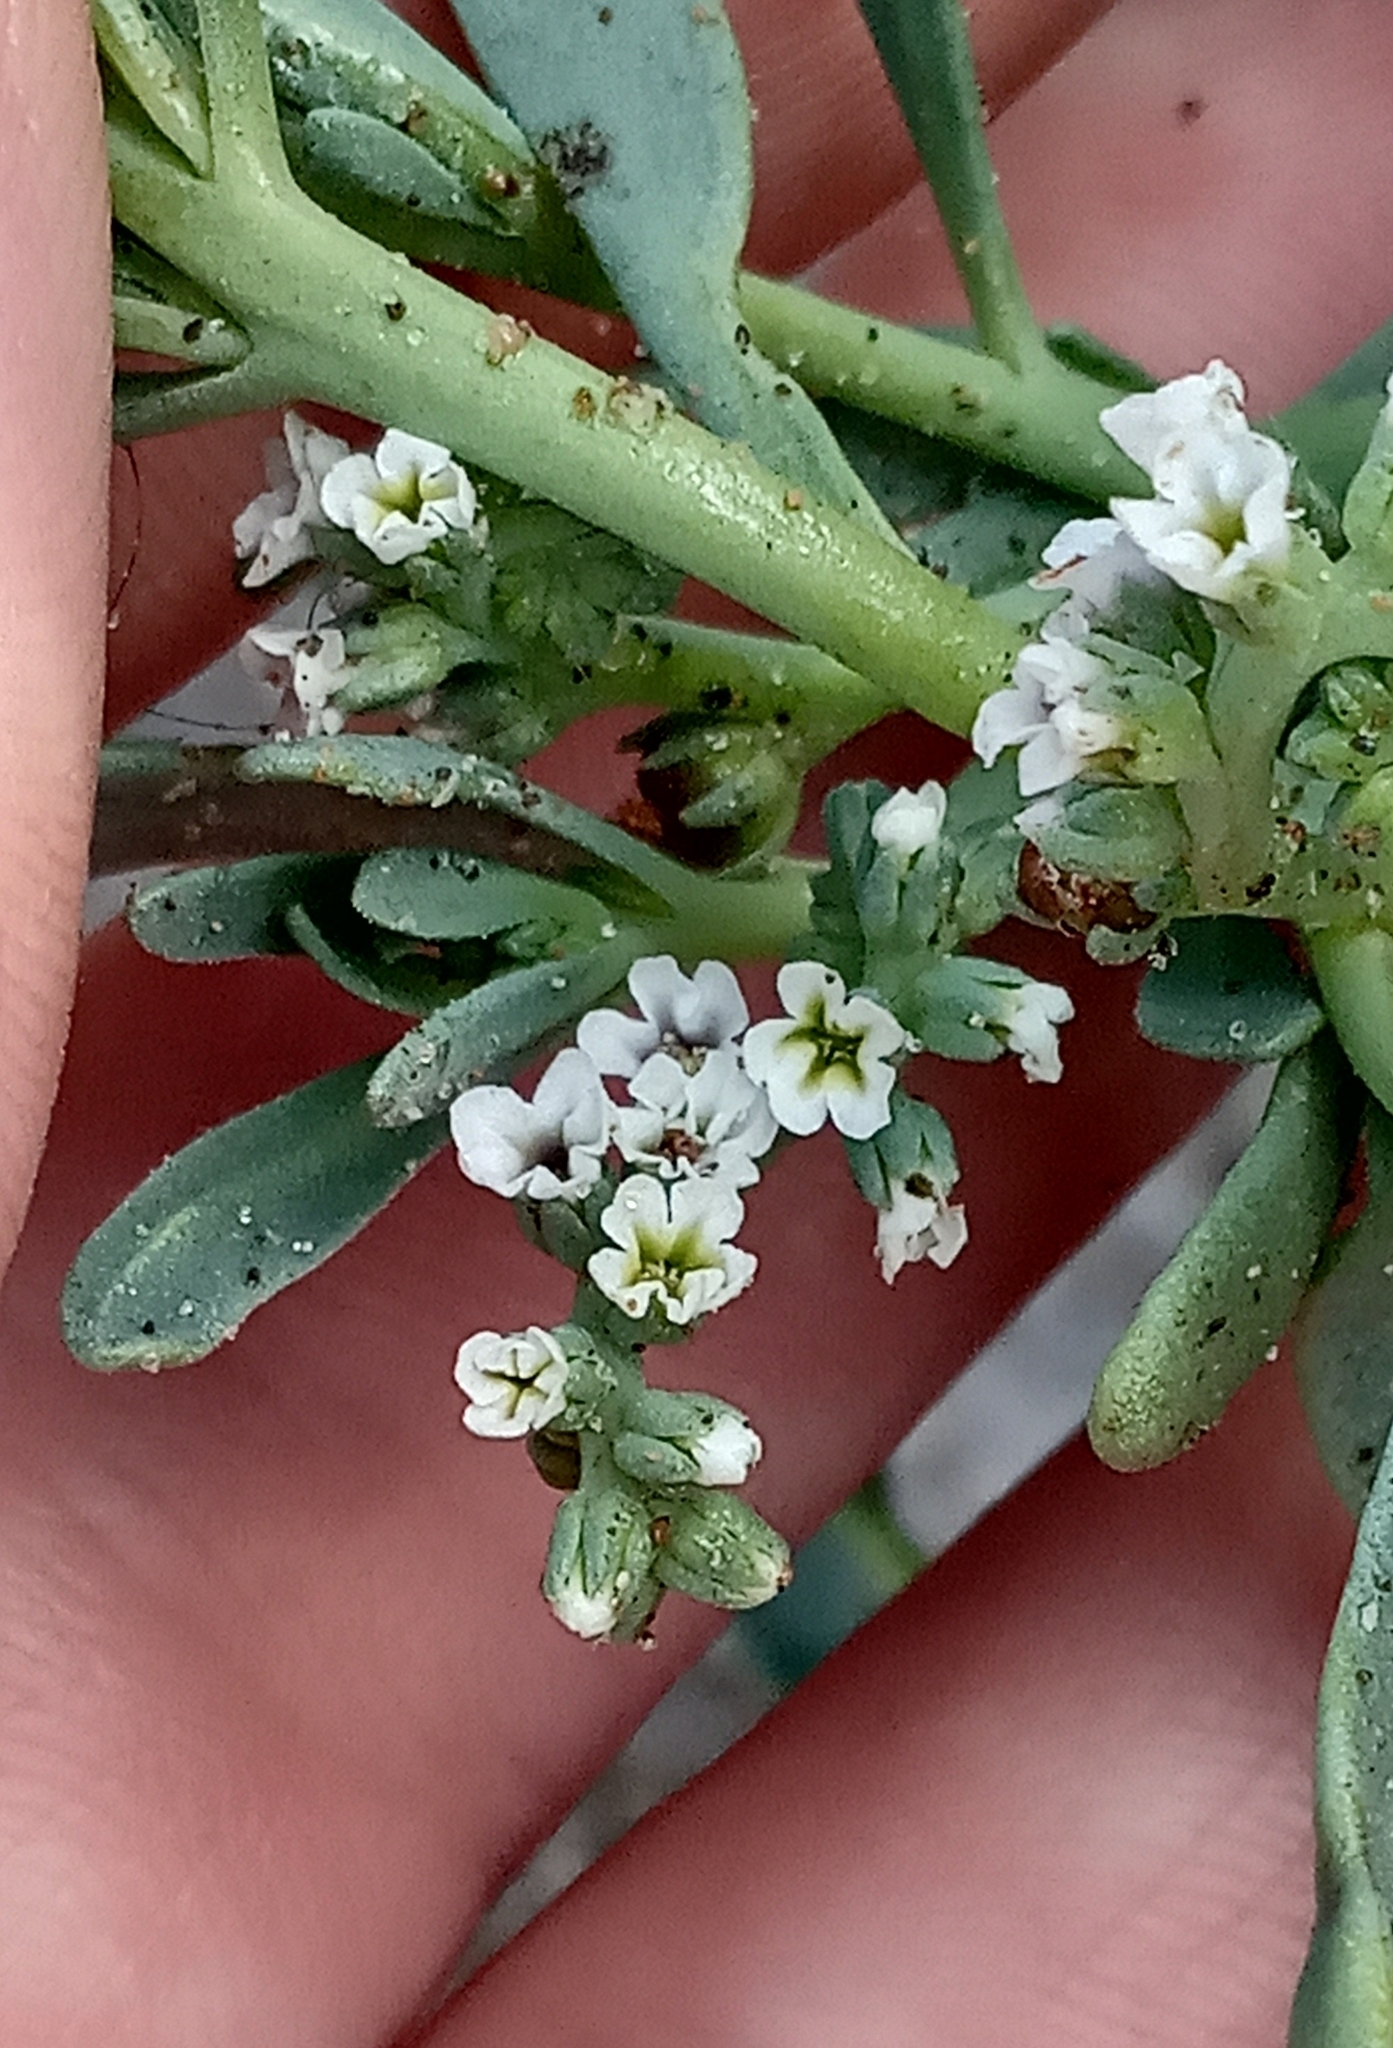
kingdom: Plantae
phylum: Tracheophyta
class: Magnoliopsida
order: Boraginales
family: Heliotropiaceae
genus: Heliotropium
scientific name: Heliotropium curassavicum
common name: Seaside heliotrope
